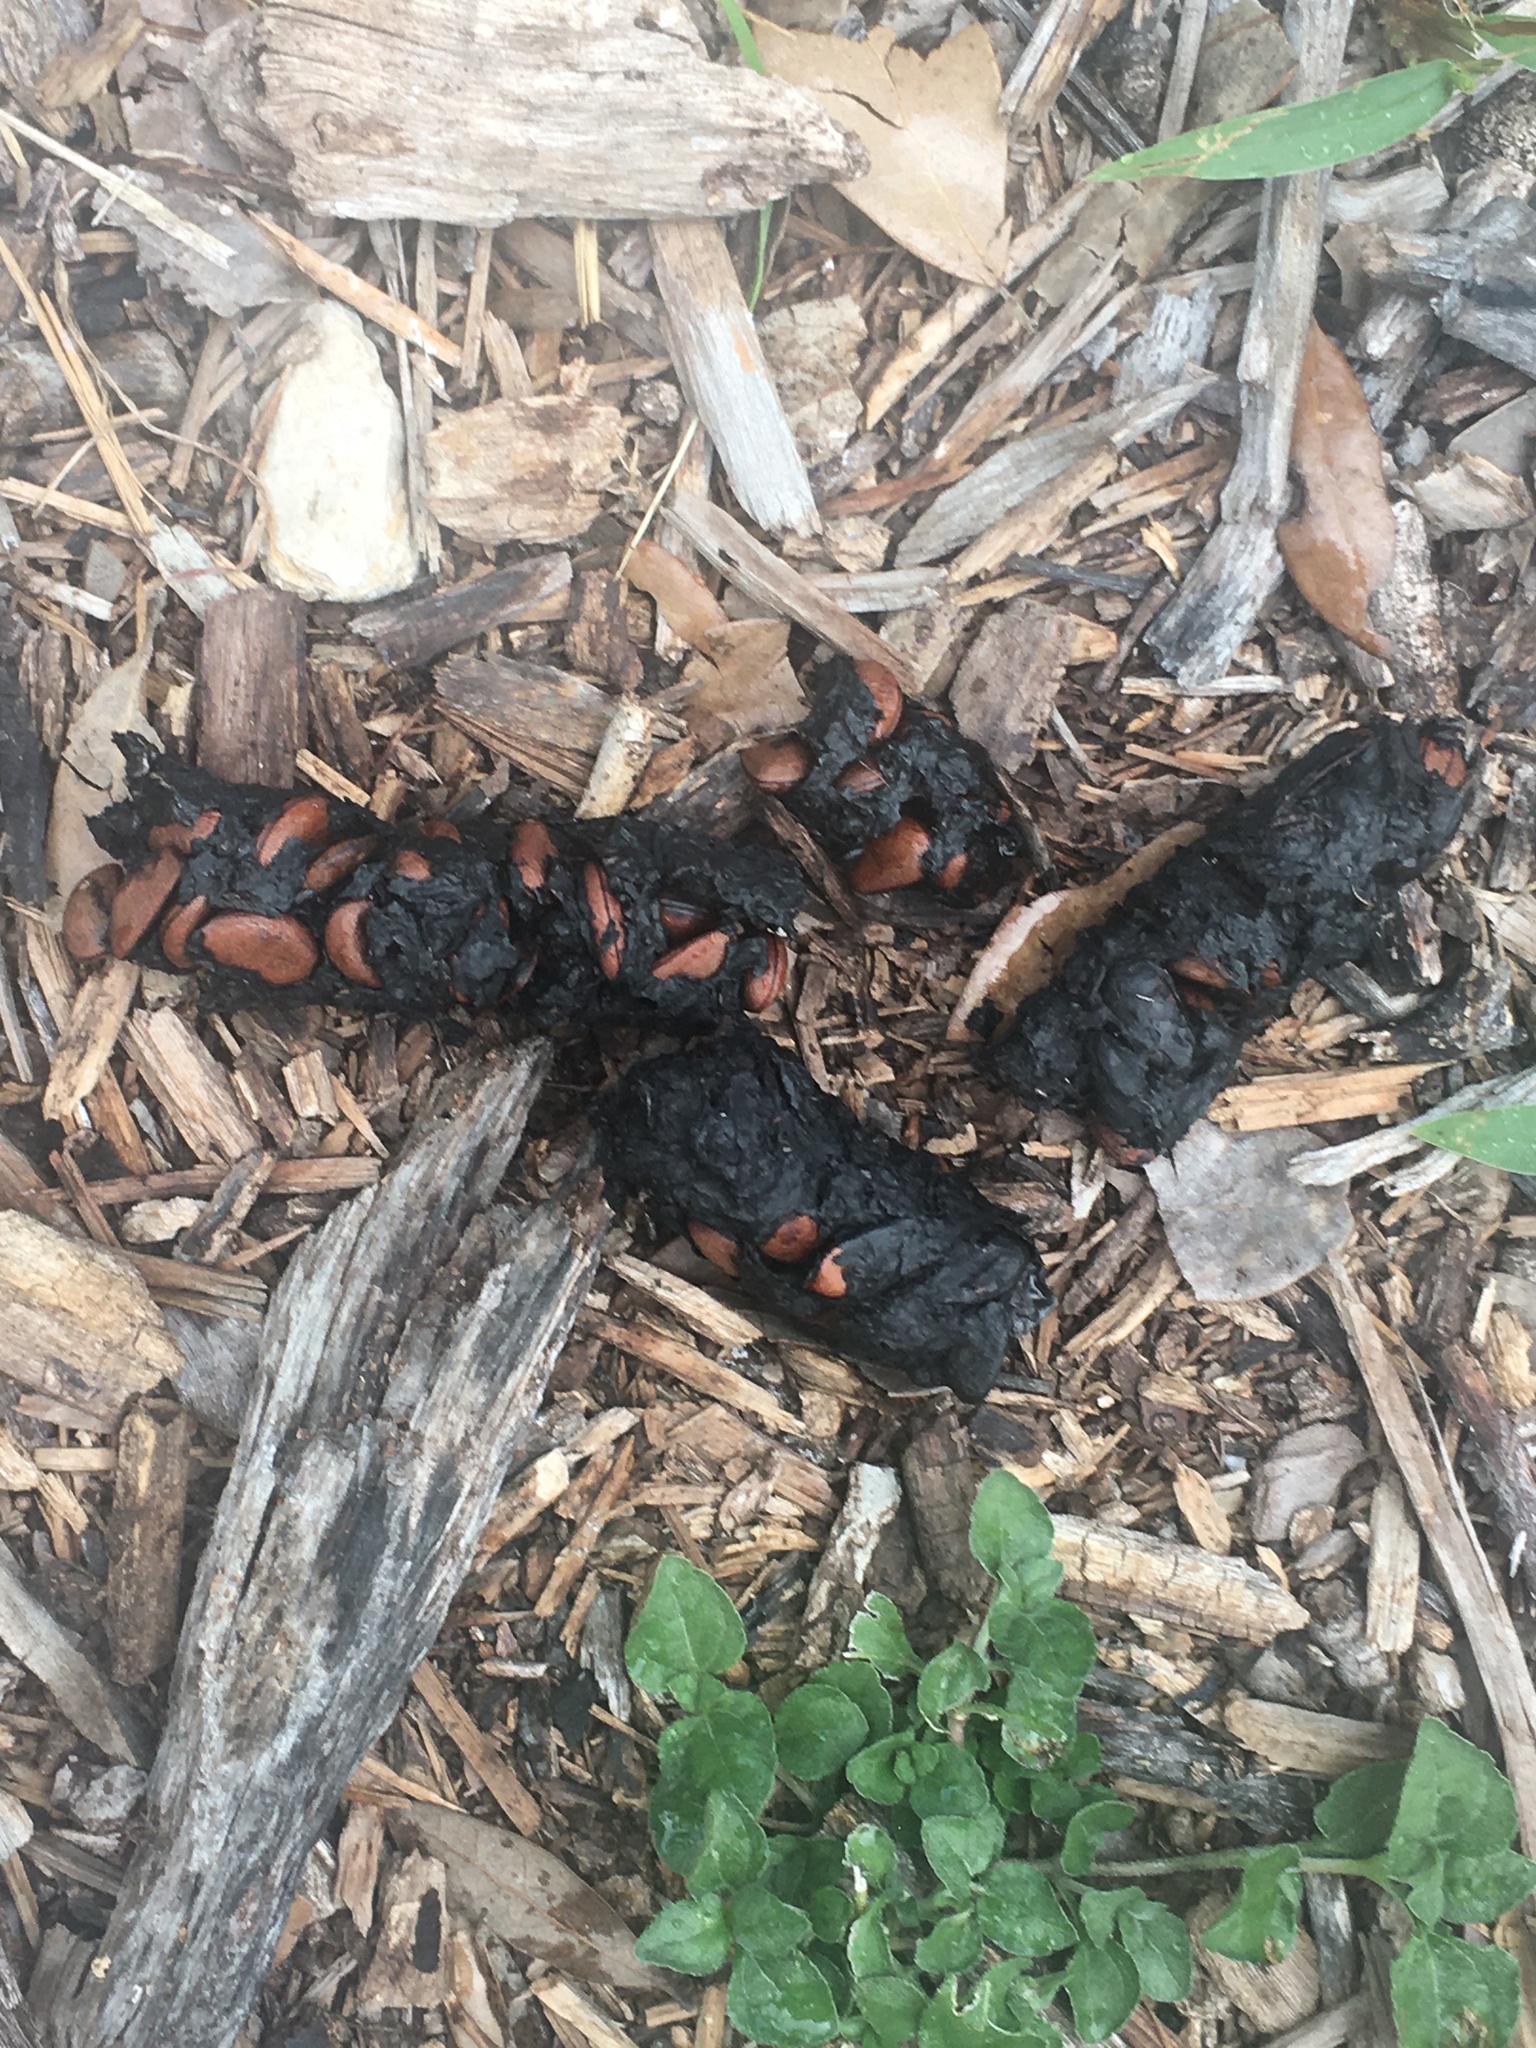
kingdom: Plantae
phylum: Tracheophyta
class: Magnoliopsida
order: Ericales
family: Ebenaceae
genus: Diospyros
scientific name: Diospyros texana
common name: Texas persimmon
